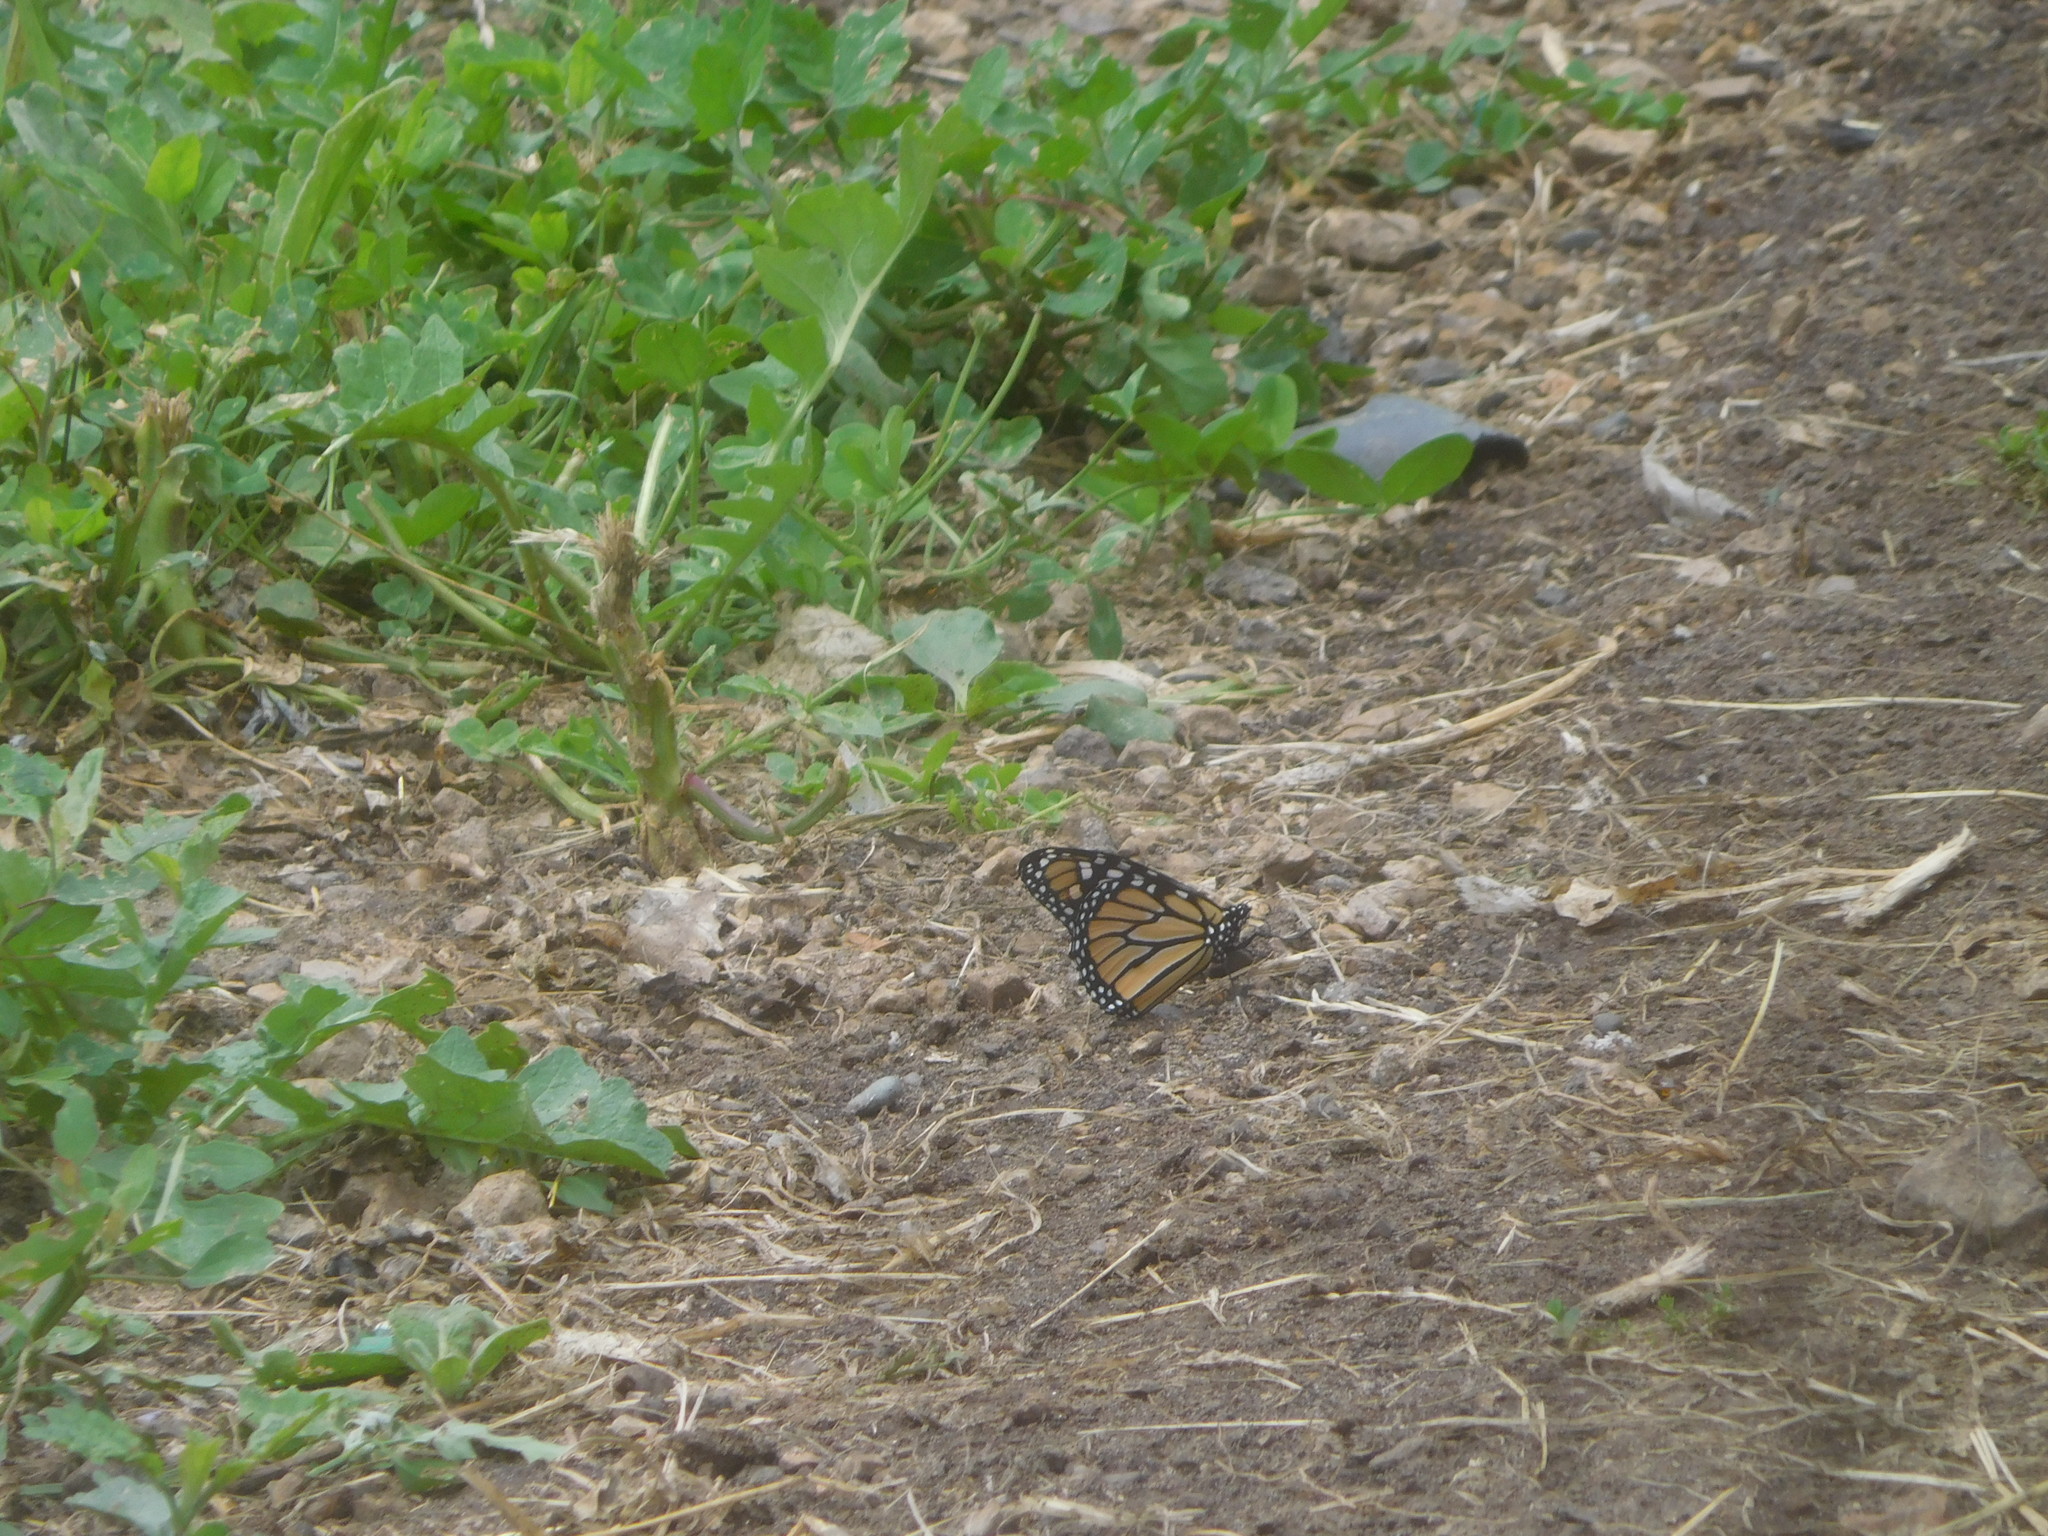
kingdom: Animalia
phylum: Arthropoda
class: Insecta
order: Lepidoptera
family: Nymphalidae
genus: Danaus
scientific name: Danaus plexippus
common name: Monarch
